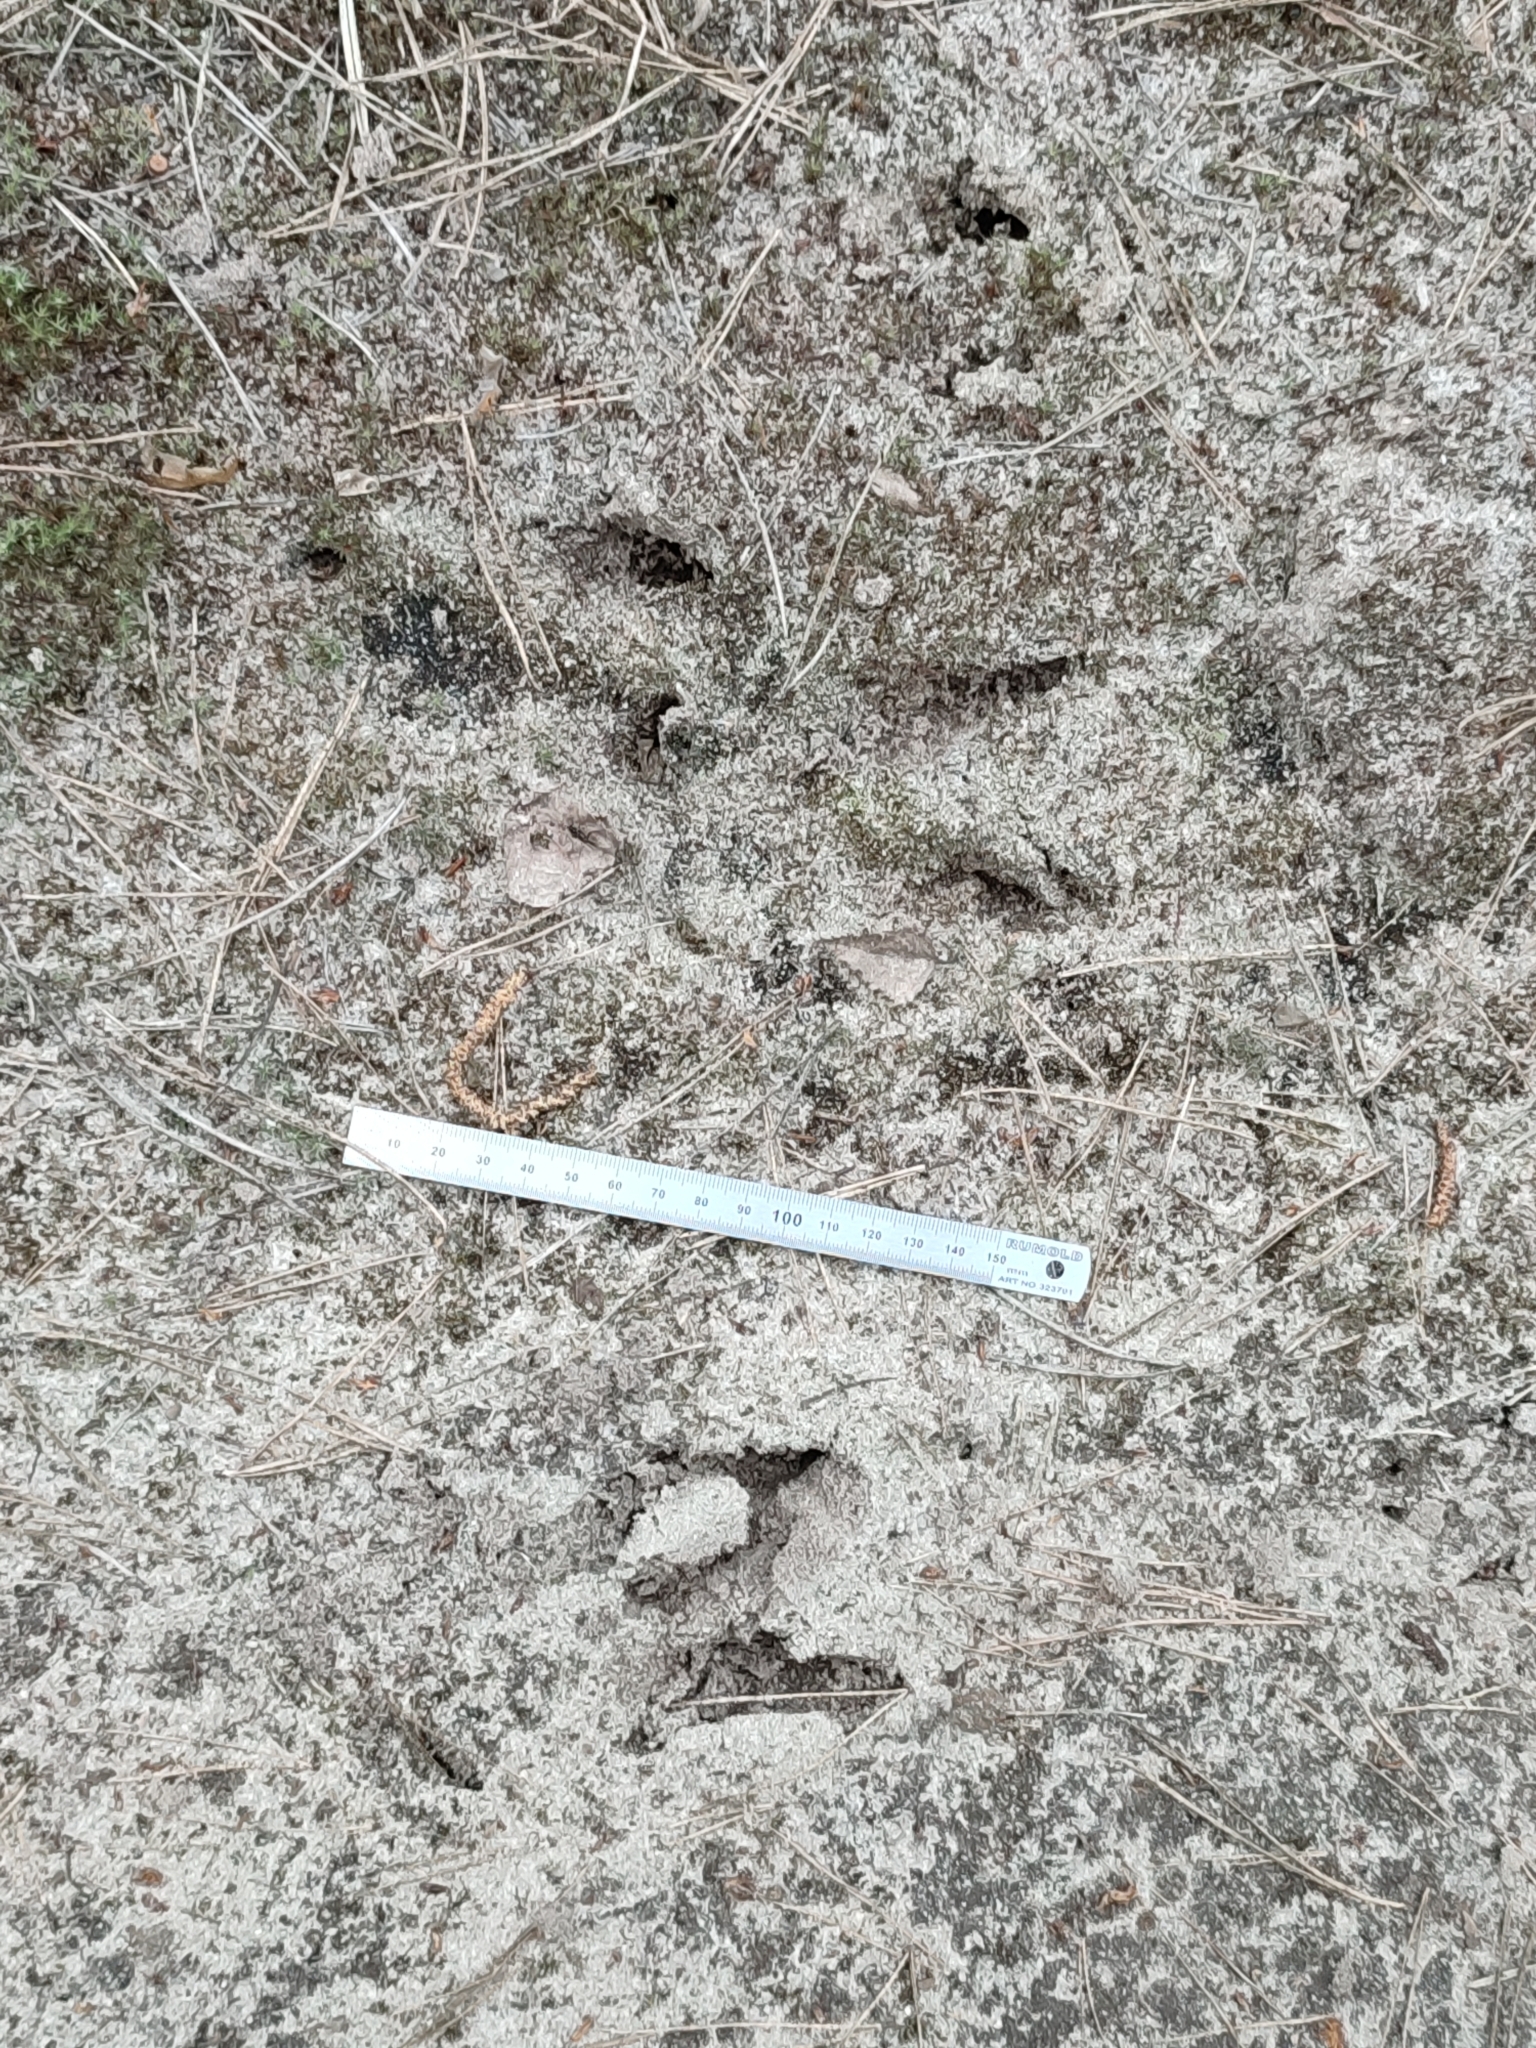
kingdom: Animalia
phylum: Chordata
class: Mammalia
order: Artiodactyla
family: Suidae
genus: Sus
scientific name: Sus scrofa
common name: Wild boar
